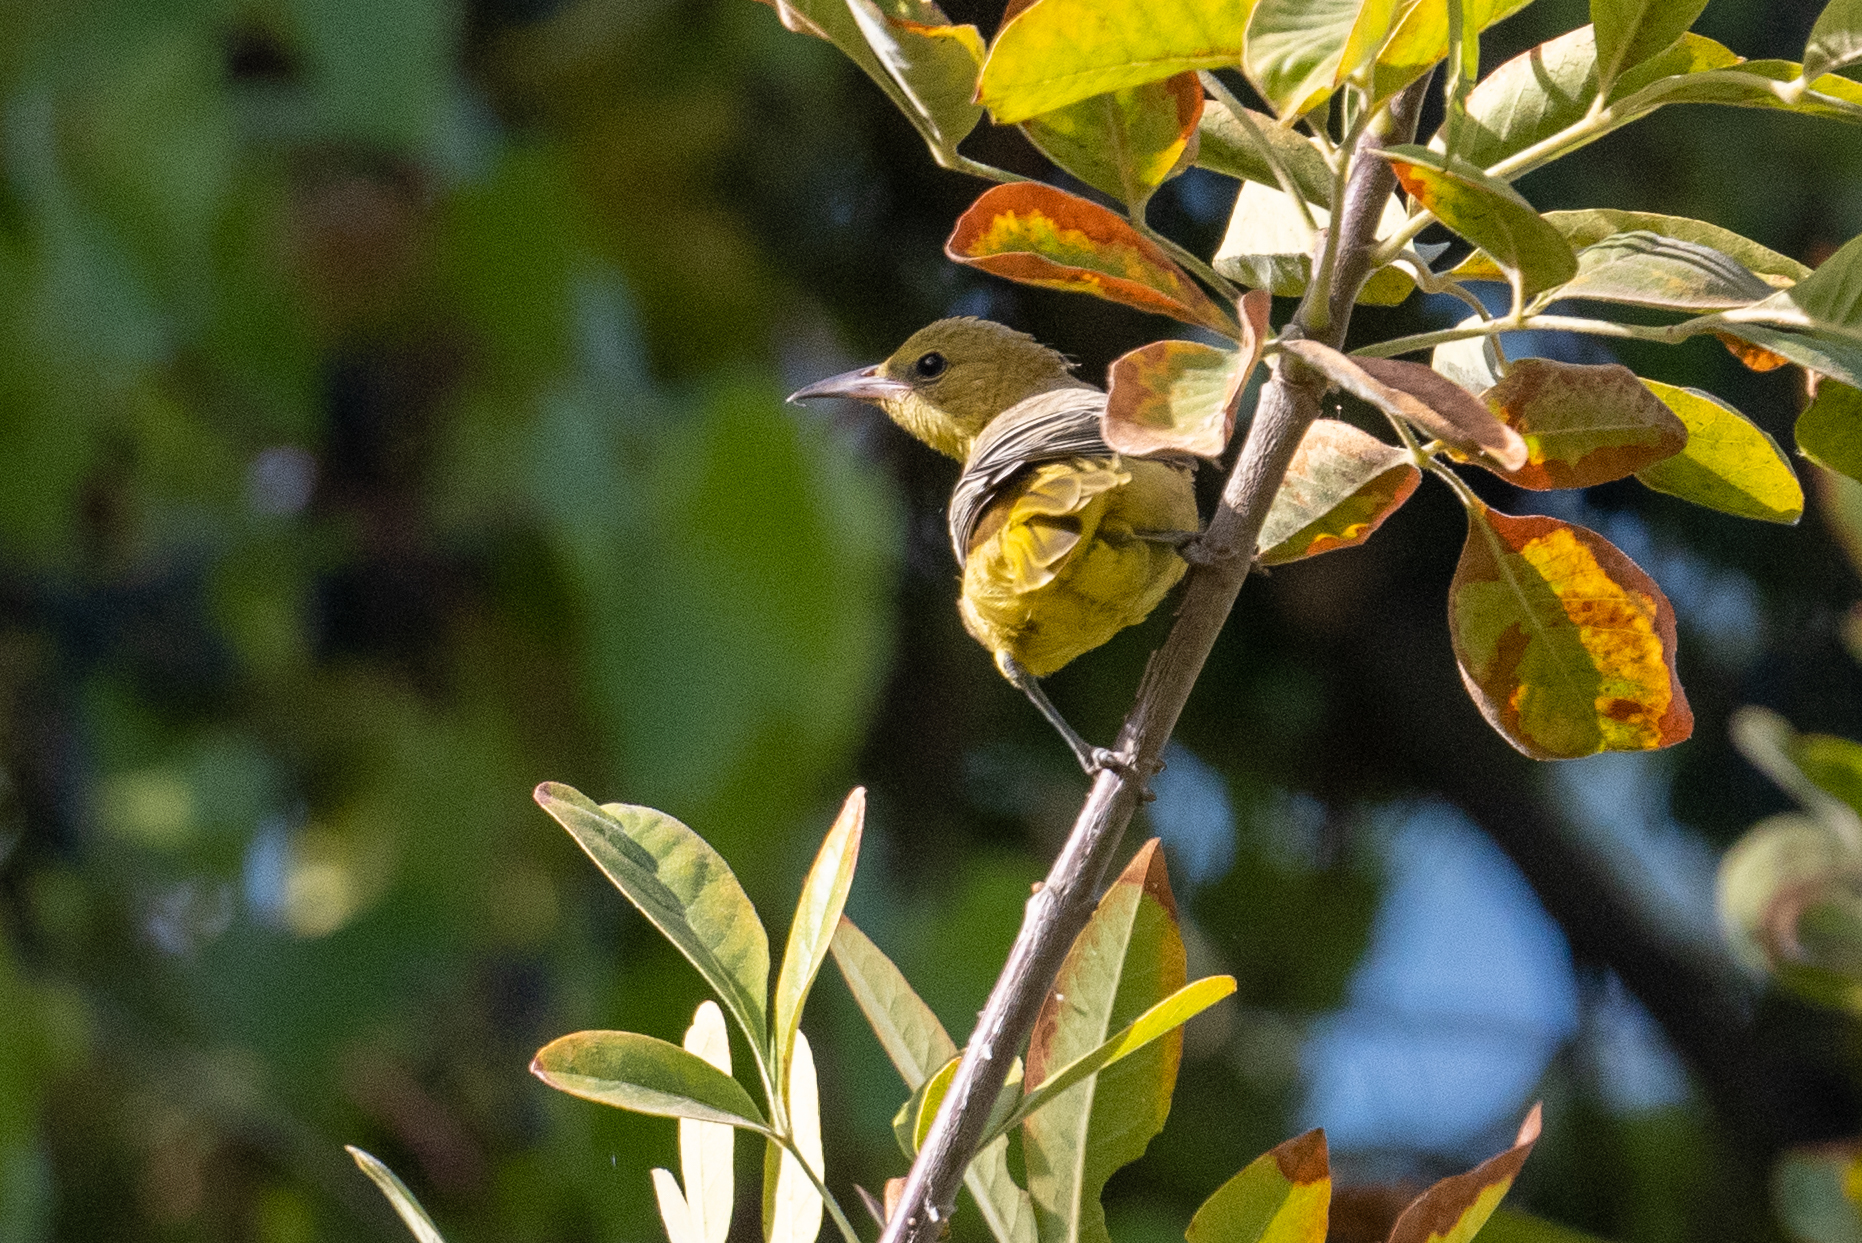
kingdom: Animalia
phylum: Chordata
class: Aves
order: Passeriformes
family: Icteridae
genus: Icterus
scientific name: Icterus cucullatus
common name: Hooded oriole
